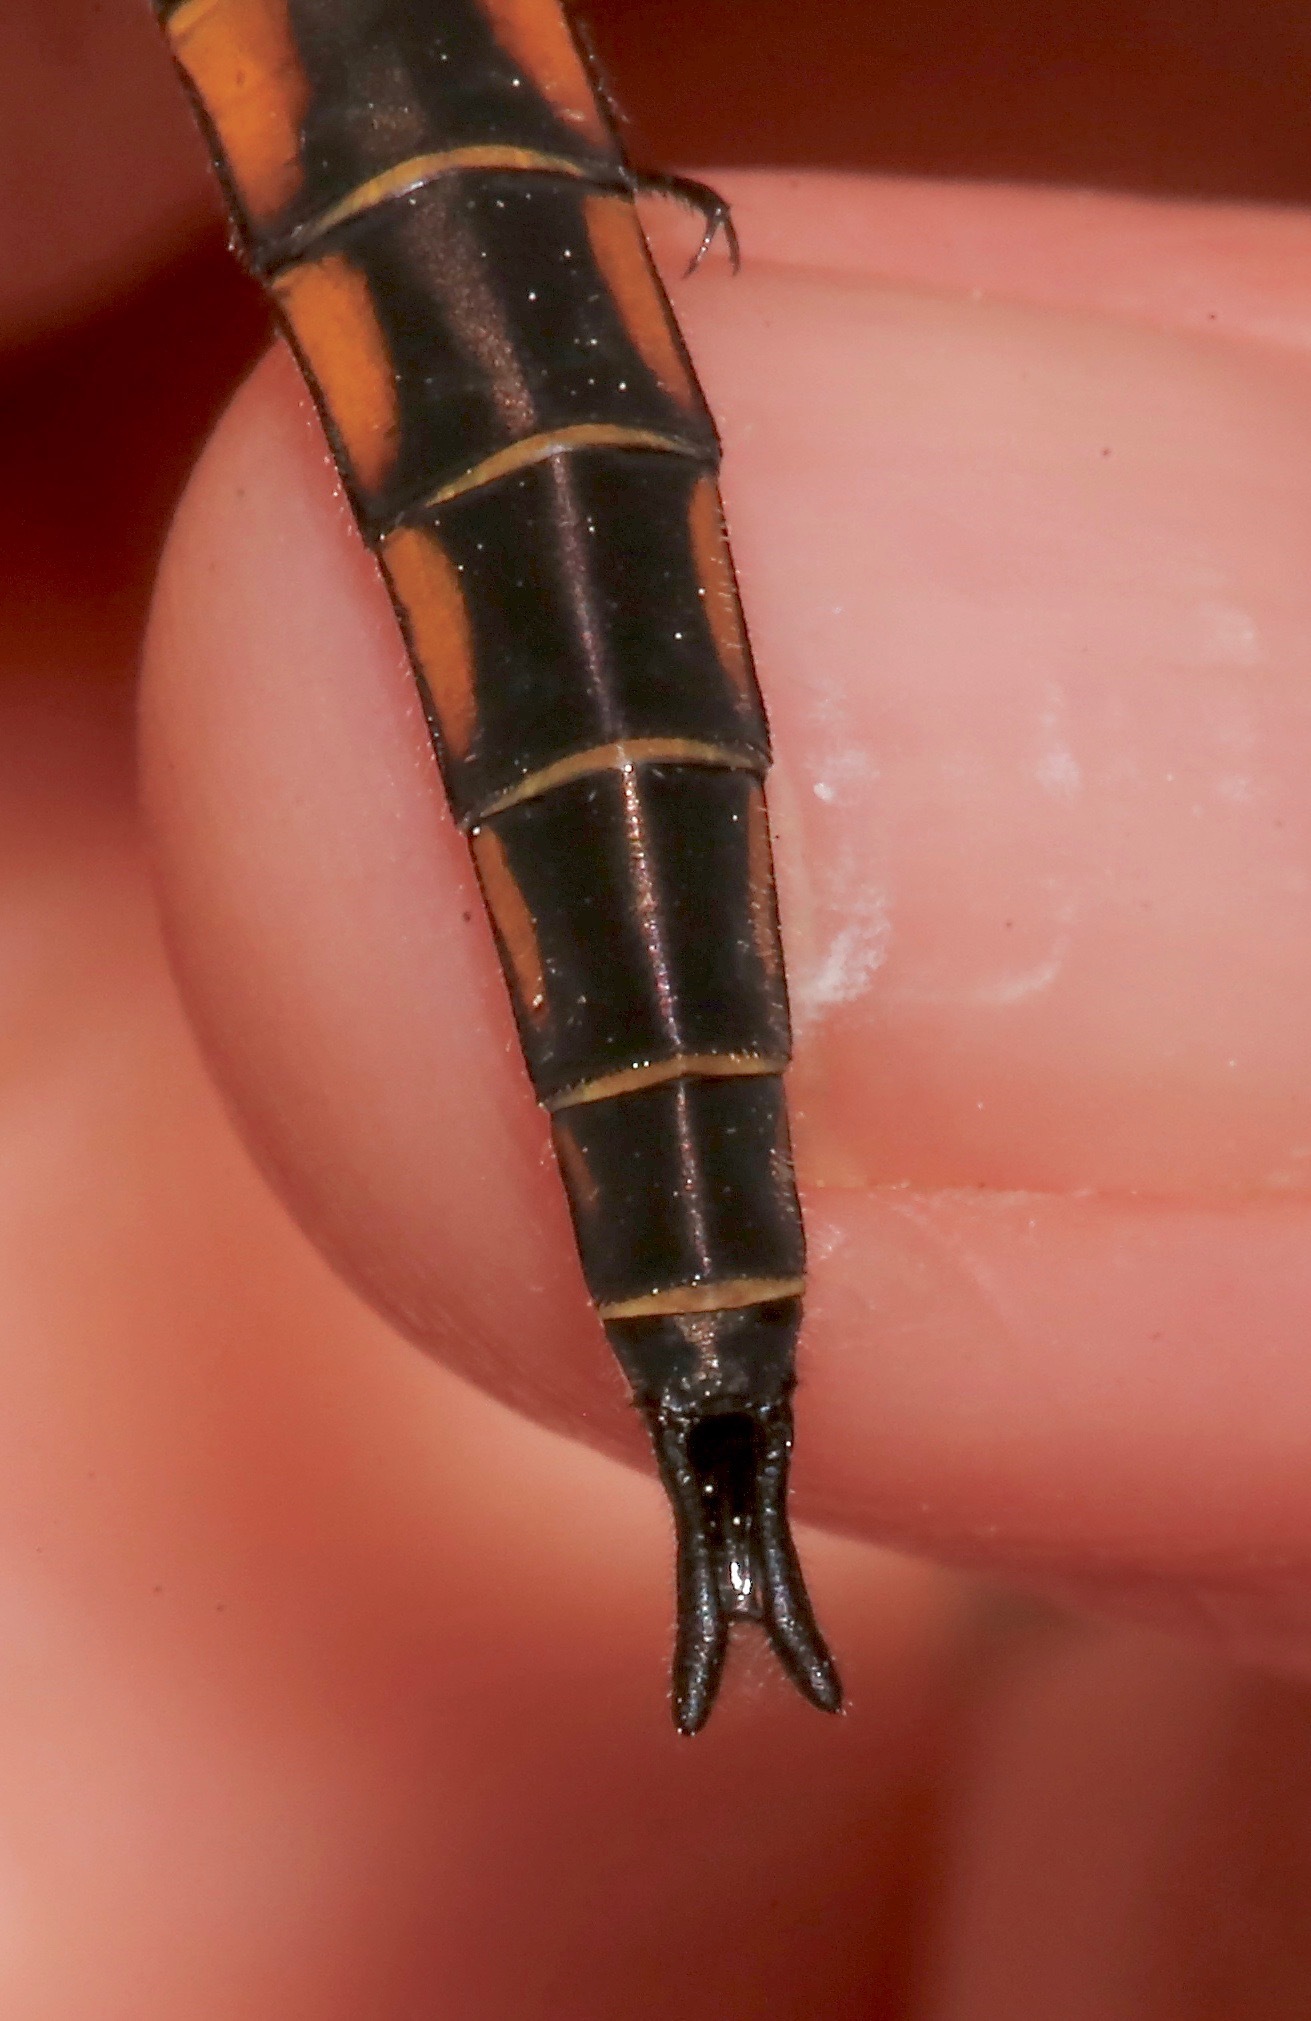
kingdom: Animalia
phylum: Arthropoda
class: Insecta
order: Odonata
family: Corduliidae
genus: Epitheca
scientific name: Epitheca cynosura
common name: Common baskettail
